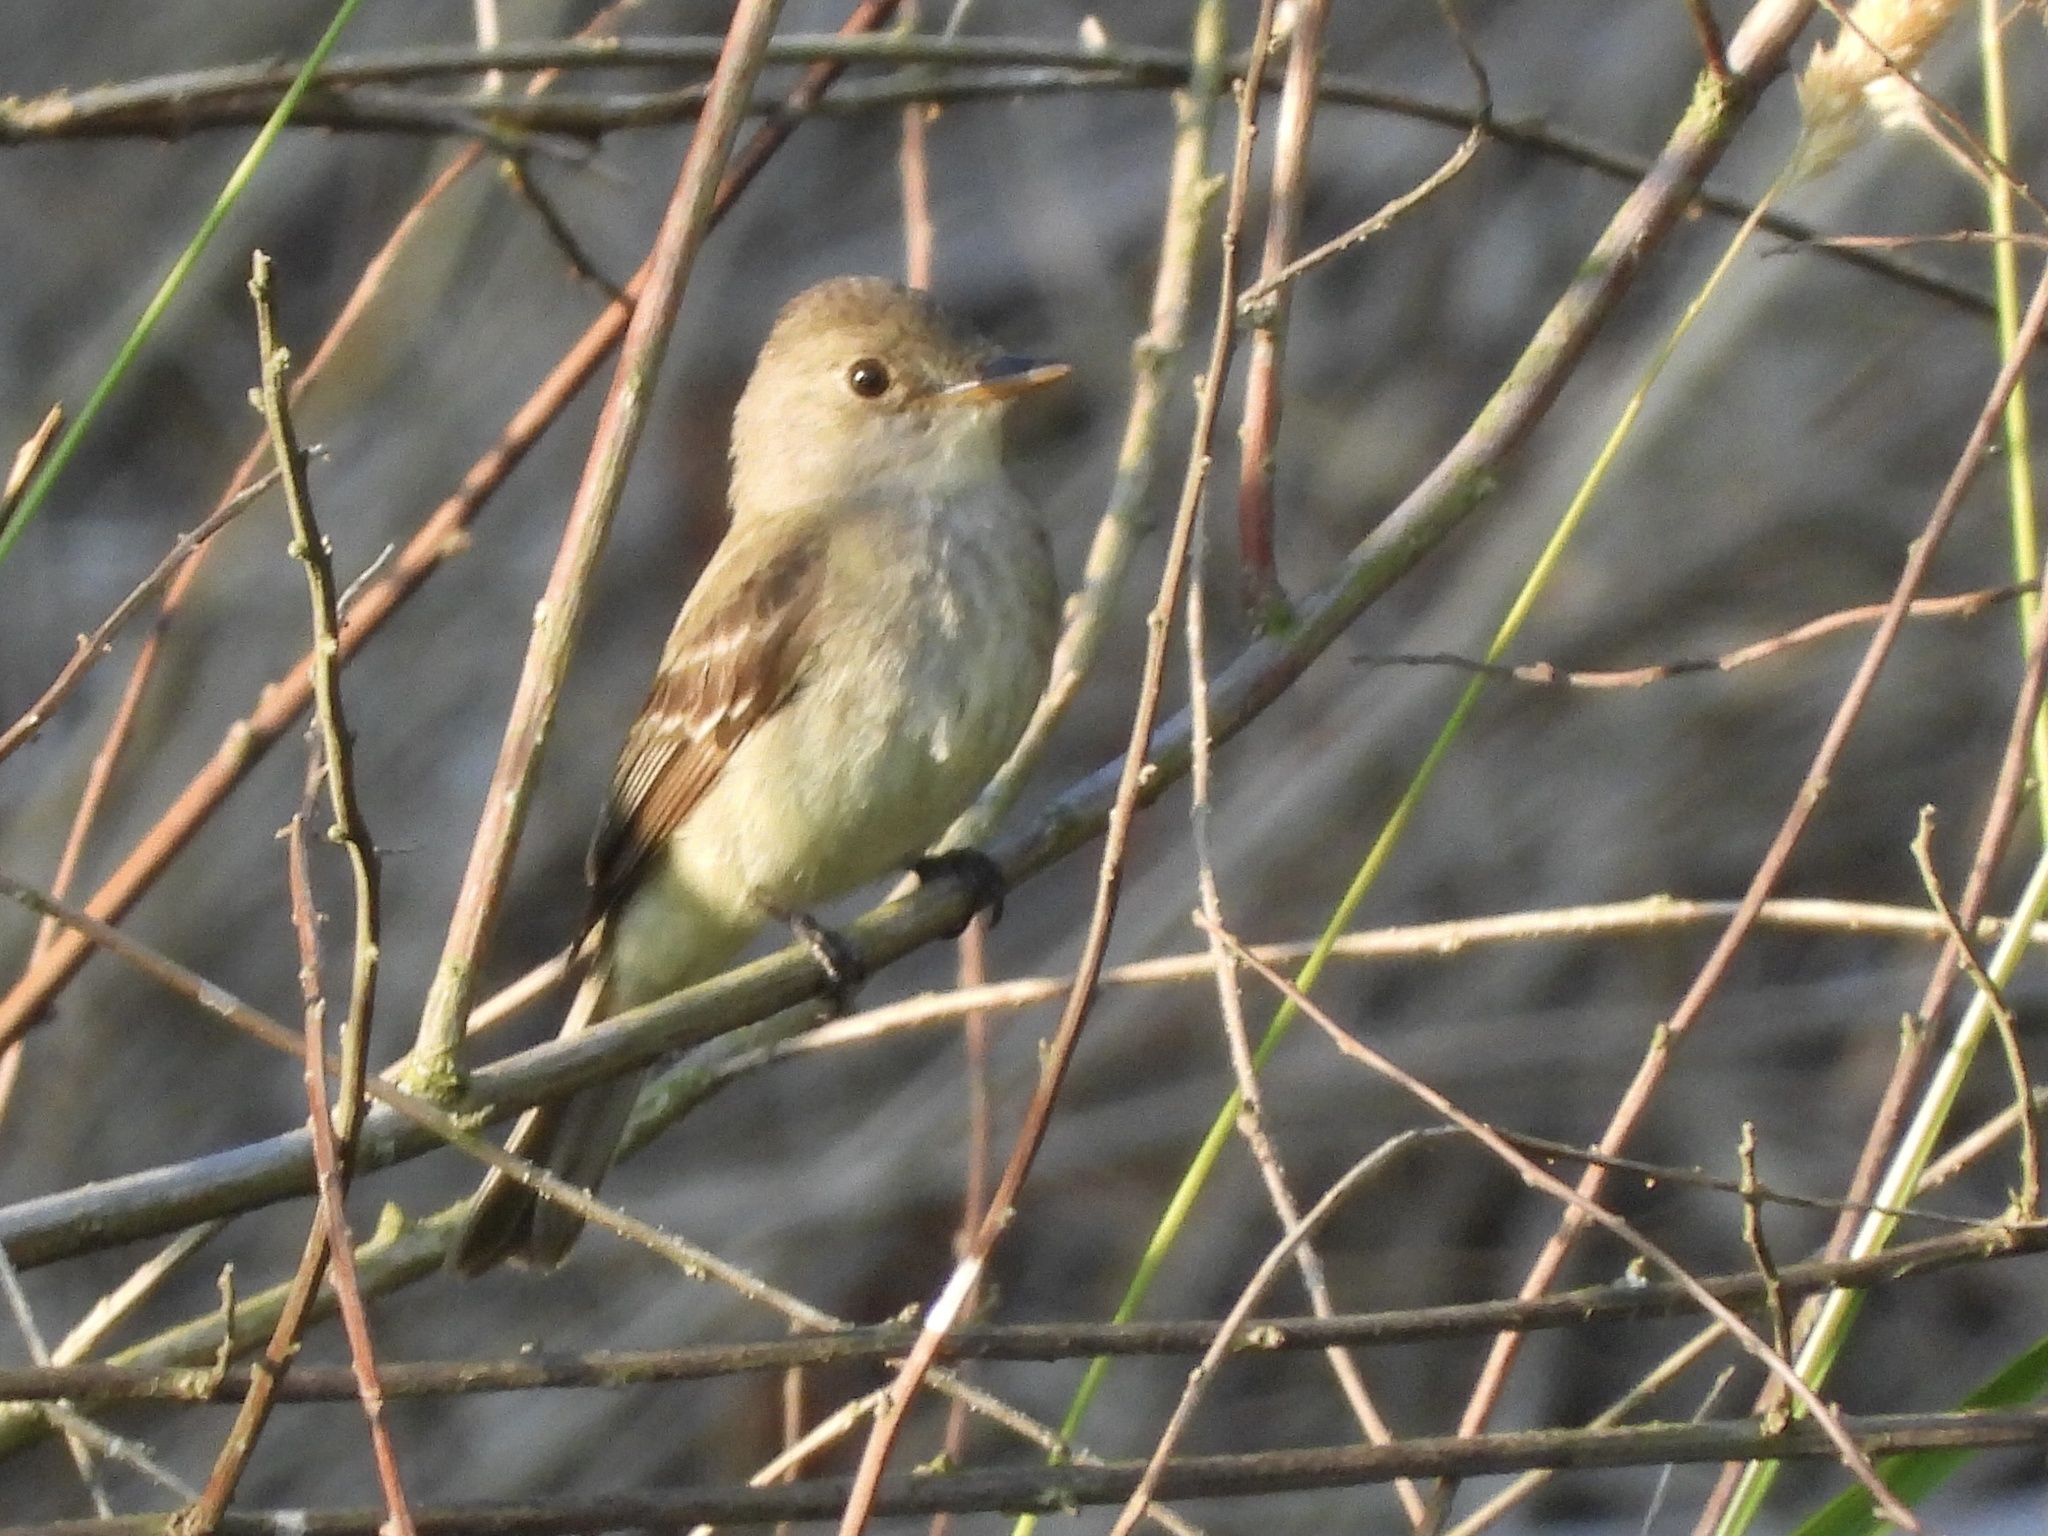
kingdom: Animalia
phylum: Chordata
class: Aves
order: Passeriformes
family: Tyrannidae
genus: Empidonax
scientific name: Empidonax traillii
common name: Willow flycatcher
